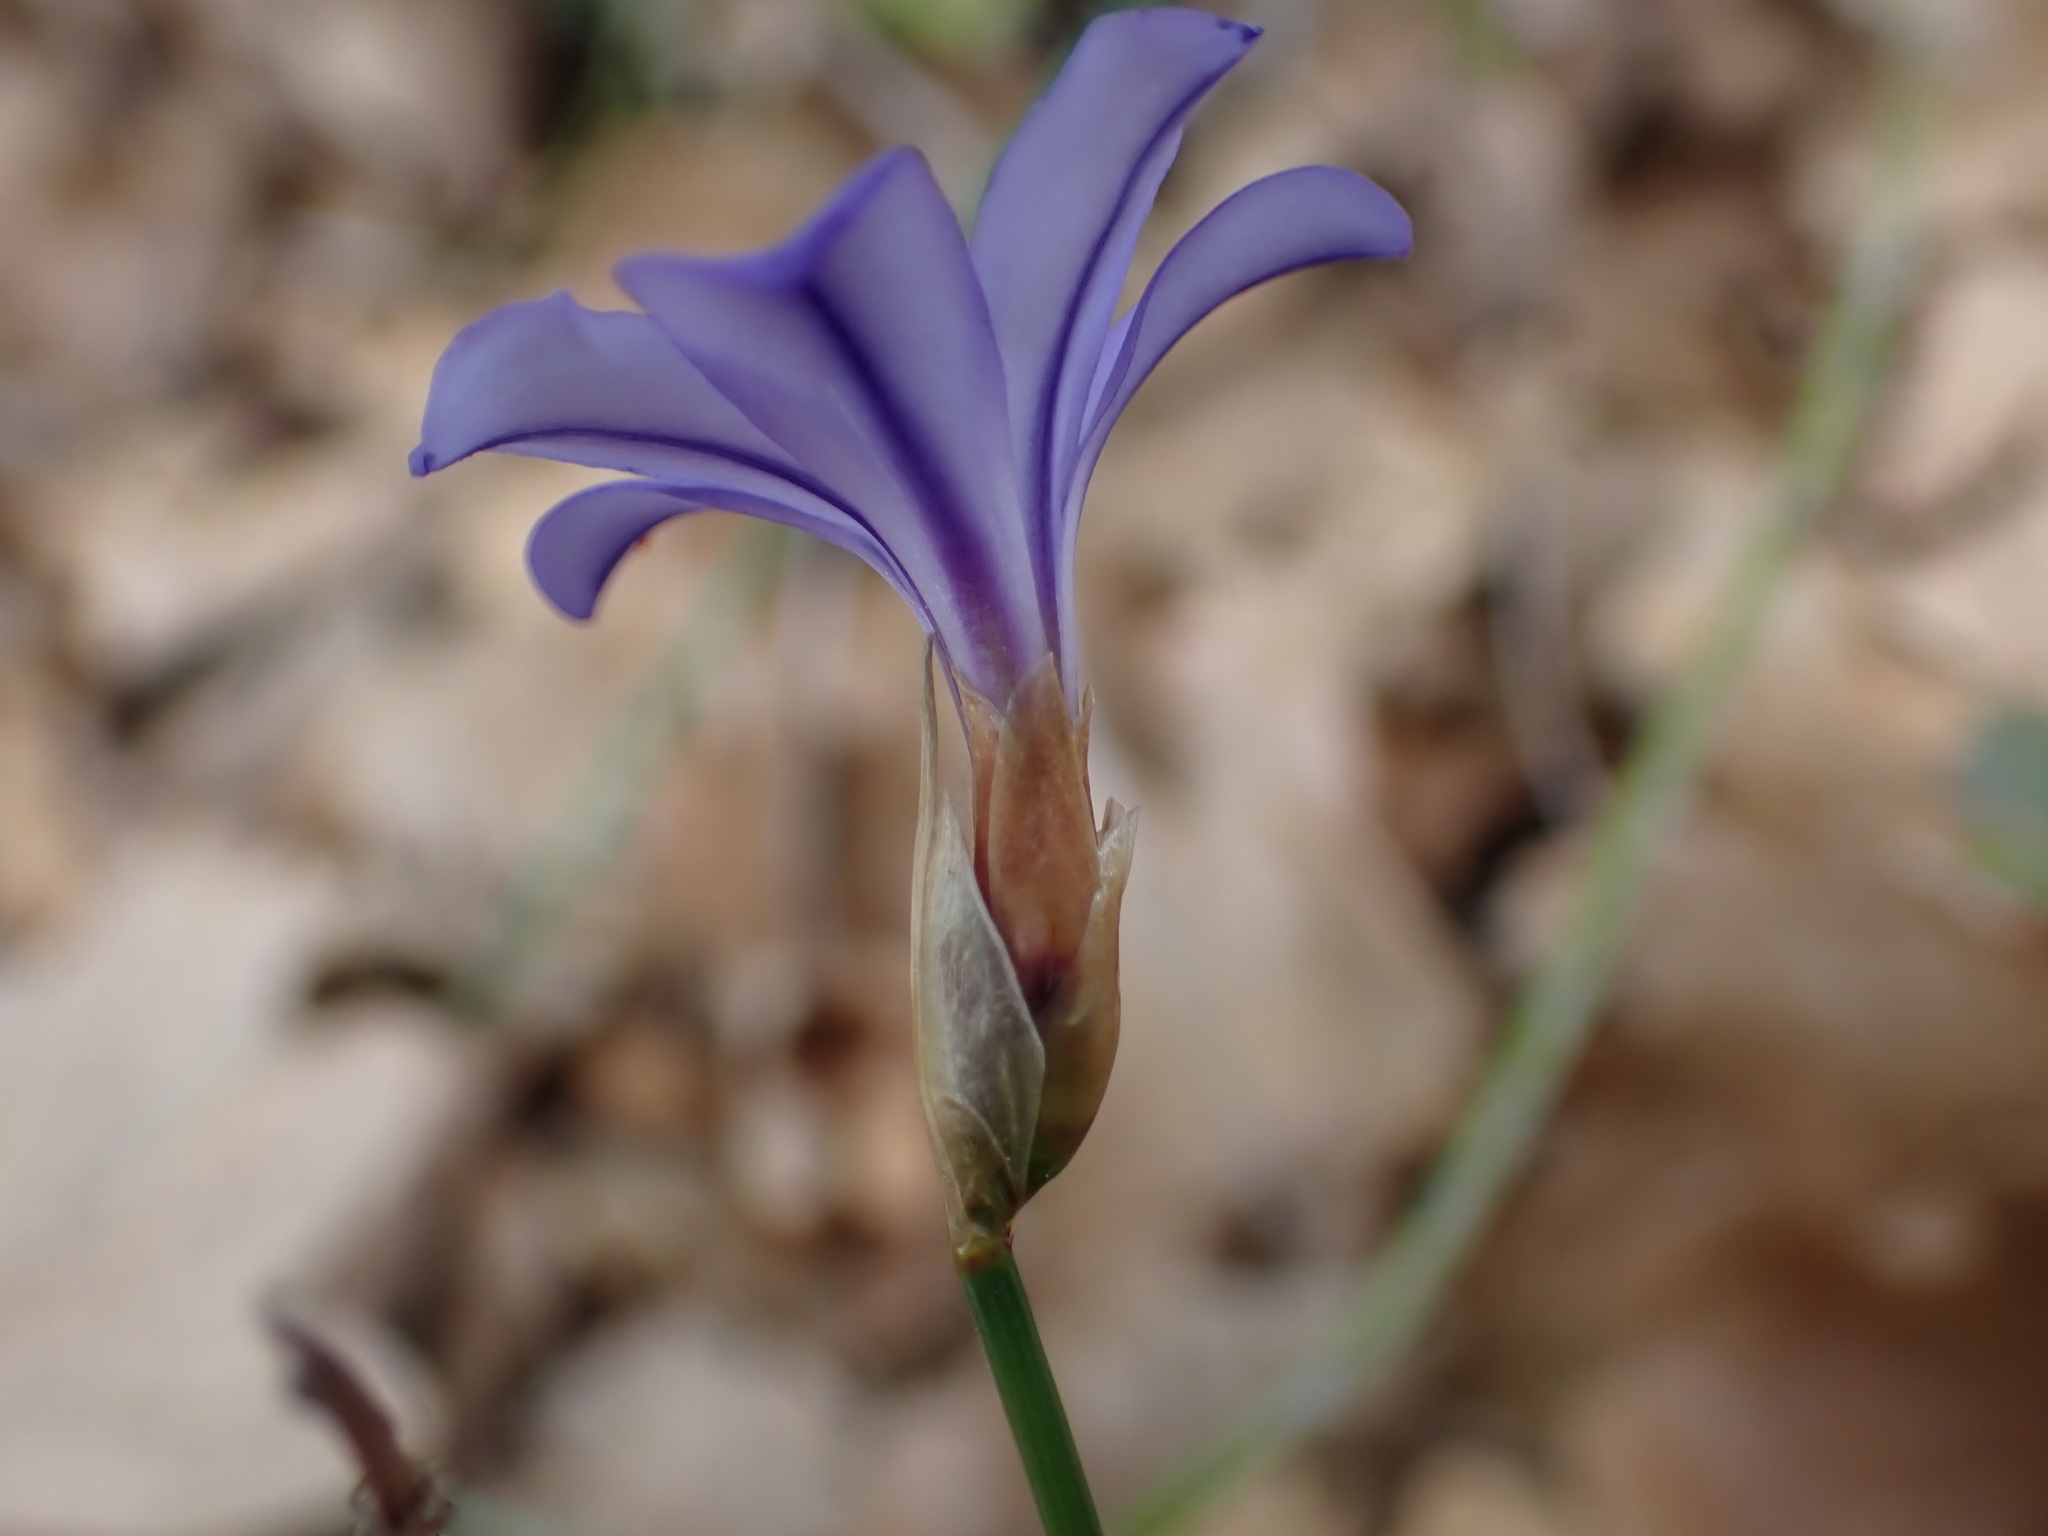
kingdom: Plantae
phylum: Tracheophyta
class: Liliopsida
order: Asparagales
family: Asparagaceae
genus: Aphyllanthes
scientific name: Aphyllanthes monspeliensis
